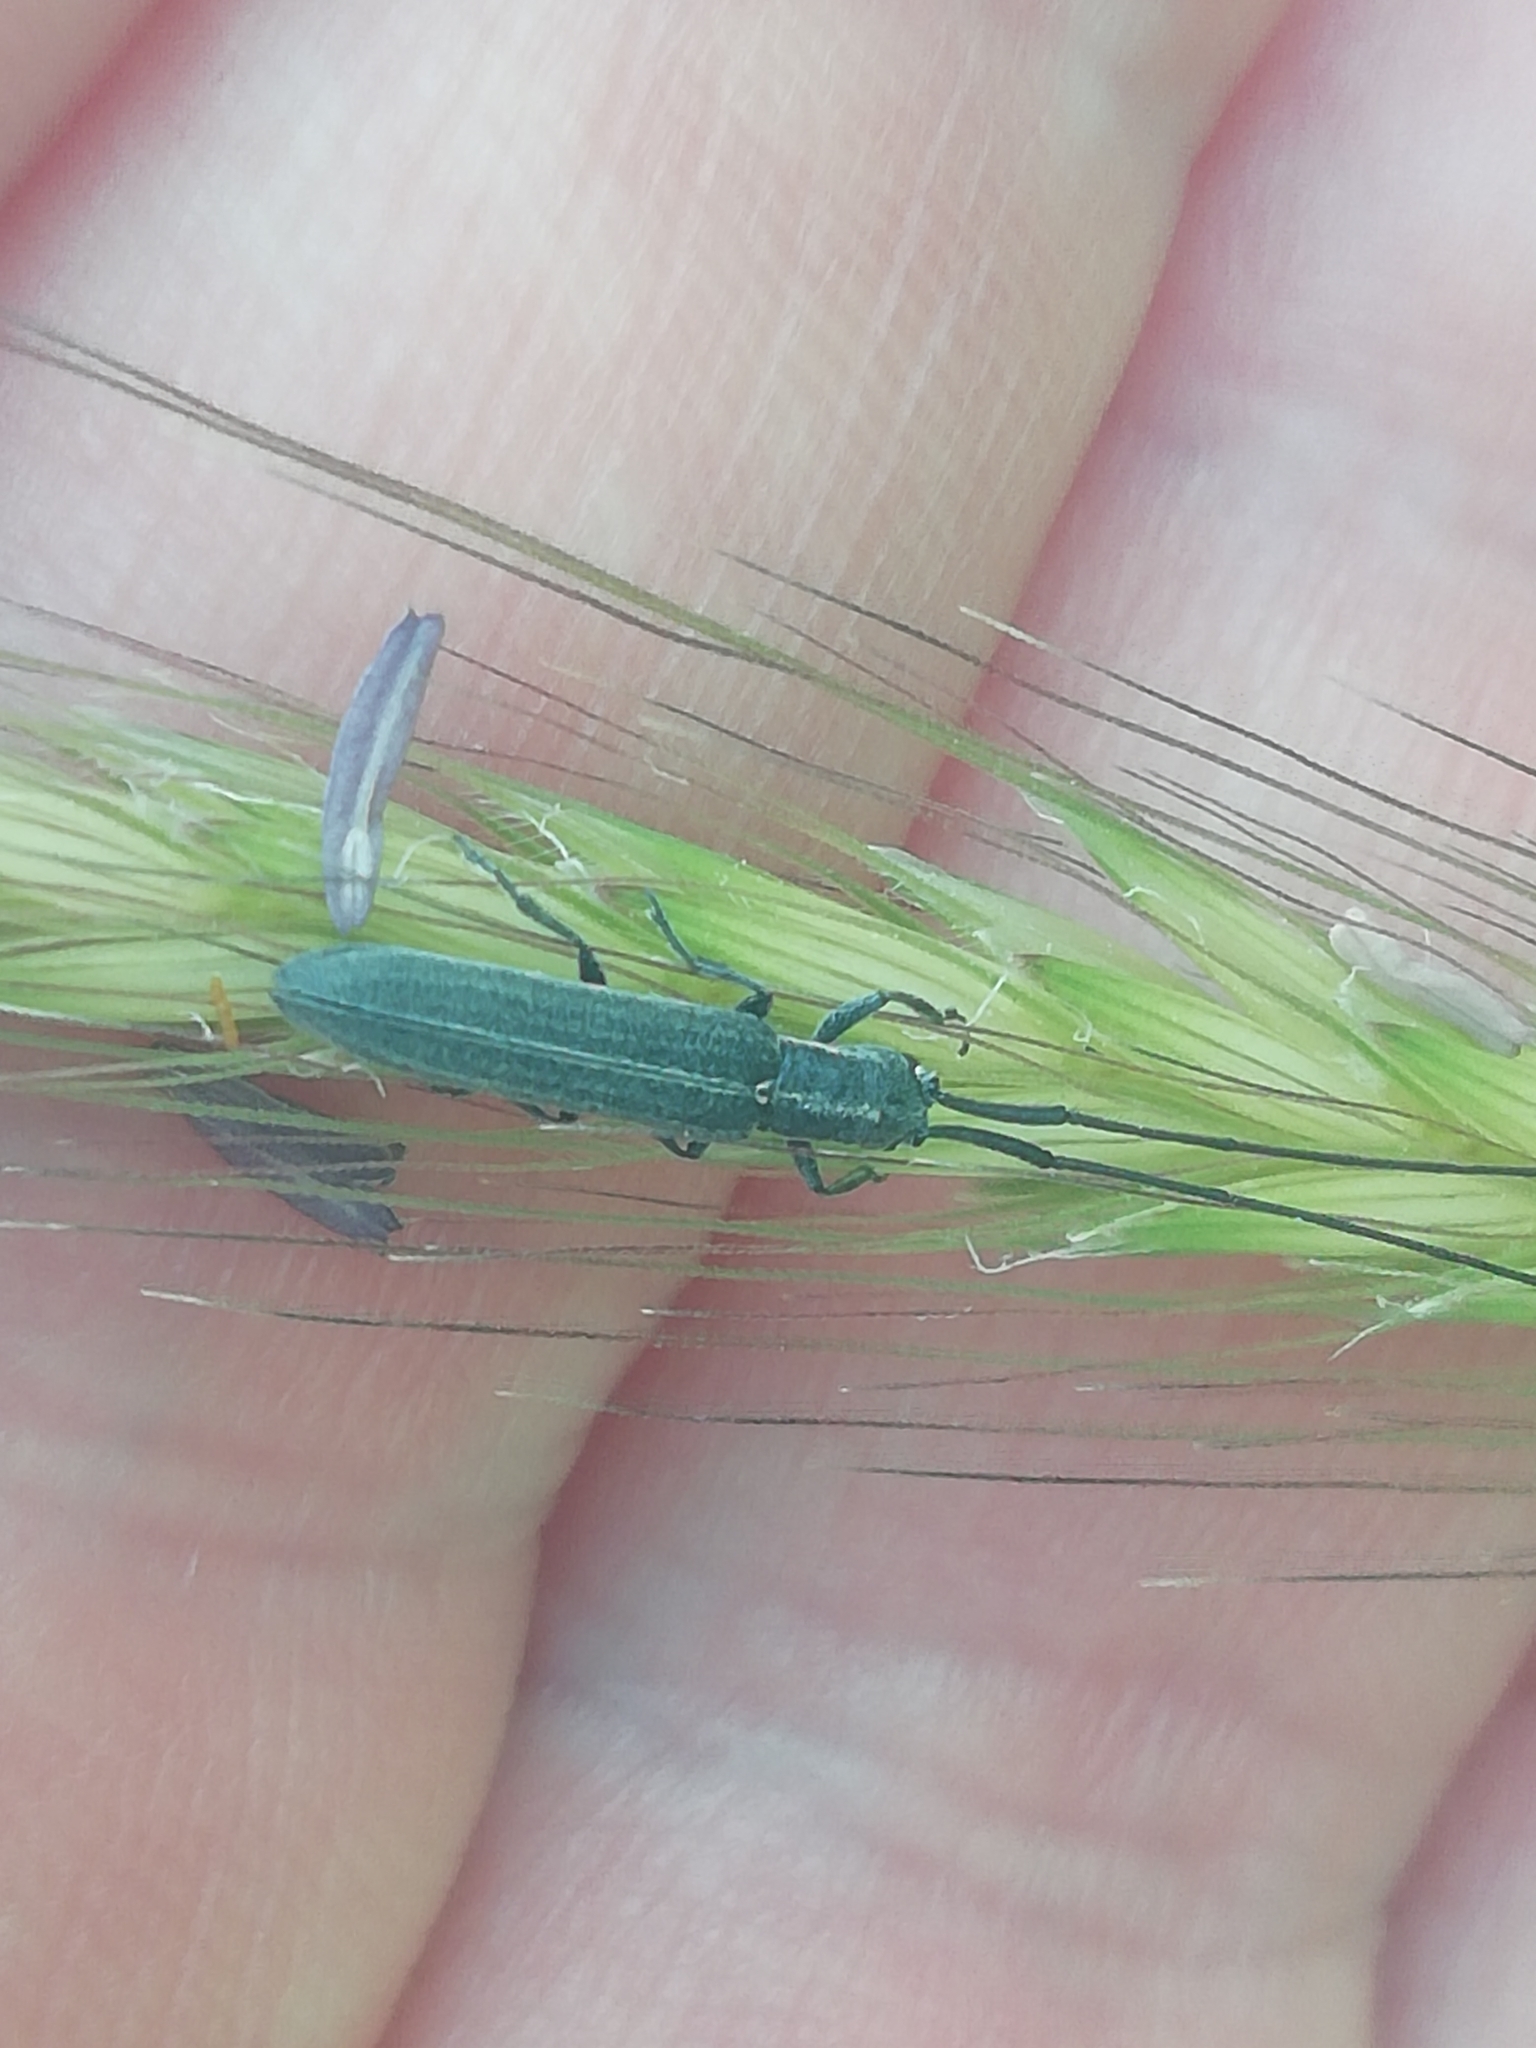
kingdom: Animalia
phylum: Arthropoda
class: Insecta
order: Coleoptera
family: Cerambycidae
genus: Calamobius
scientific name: Calamobius filum
